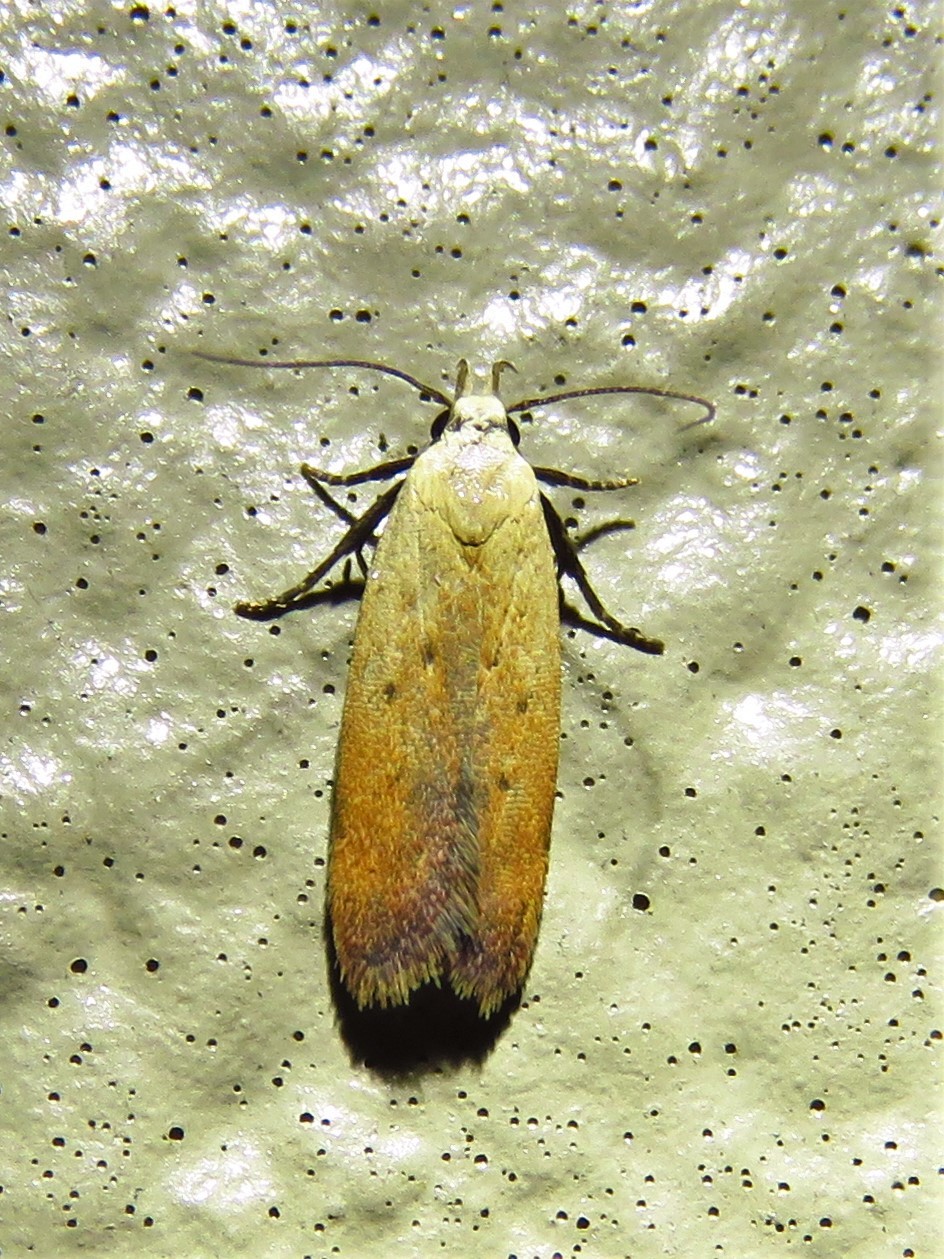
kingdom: Animalia
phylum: Arthropoda
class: Insecta
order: Lepidoptera
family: Gelechiidae
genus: Anacampsis
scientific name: Anacampsis fullonella
